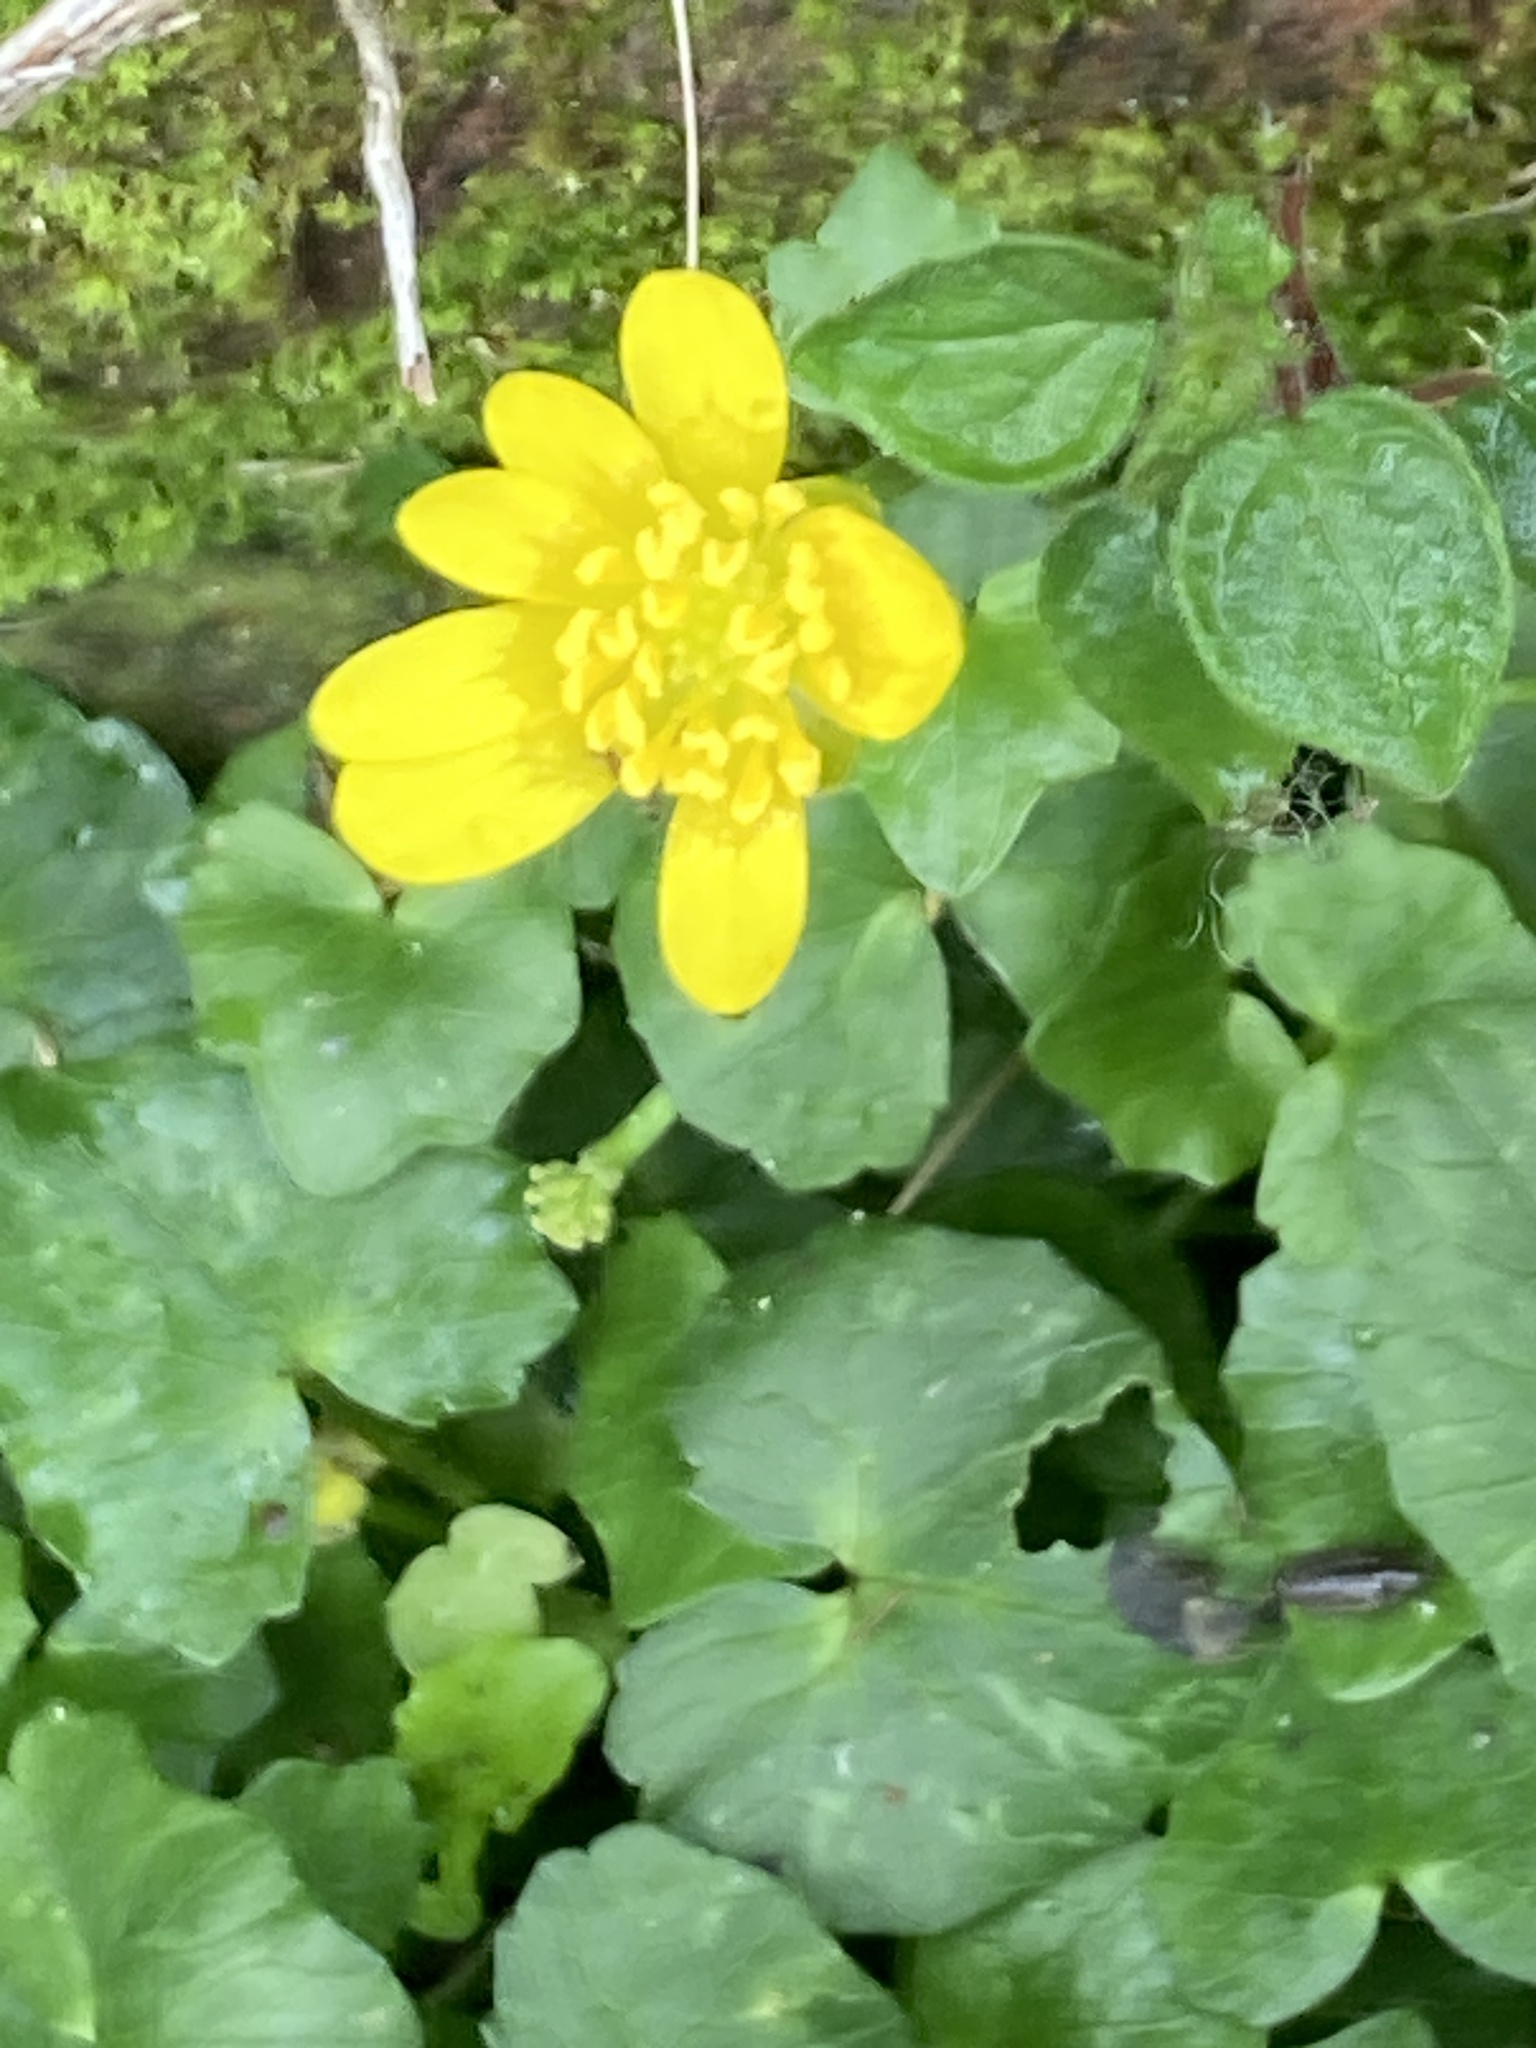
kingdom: Plantae
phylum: Tracheophyta
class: Magnoliopsida
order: Ranunculales
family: Ranunculaceae
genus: Ficaria
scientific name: Ficaria verna
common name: Lesser celandine
